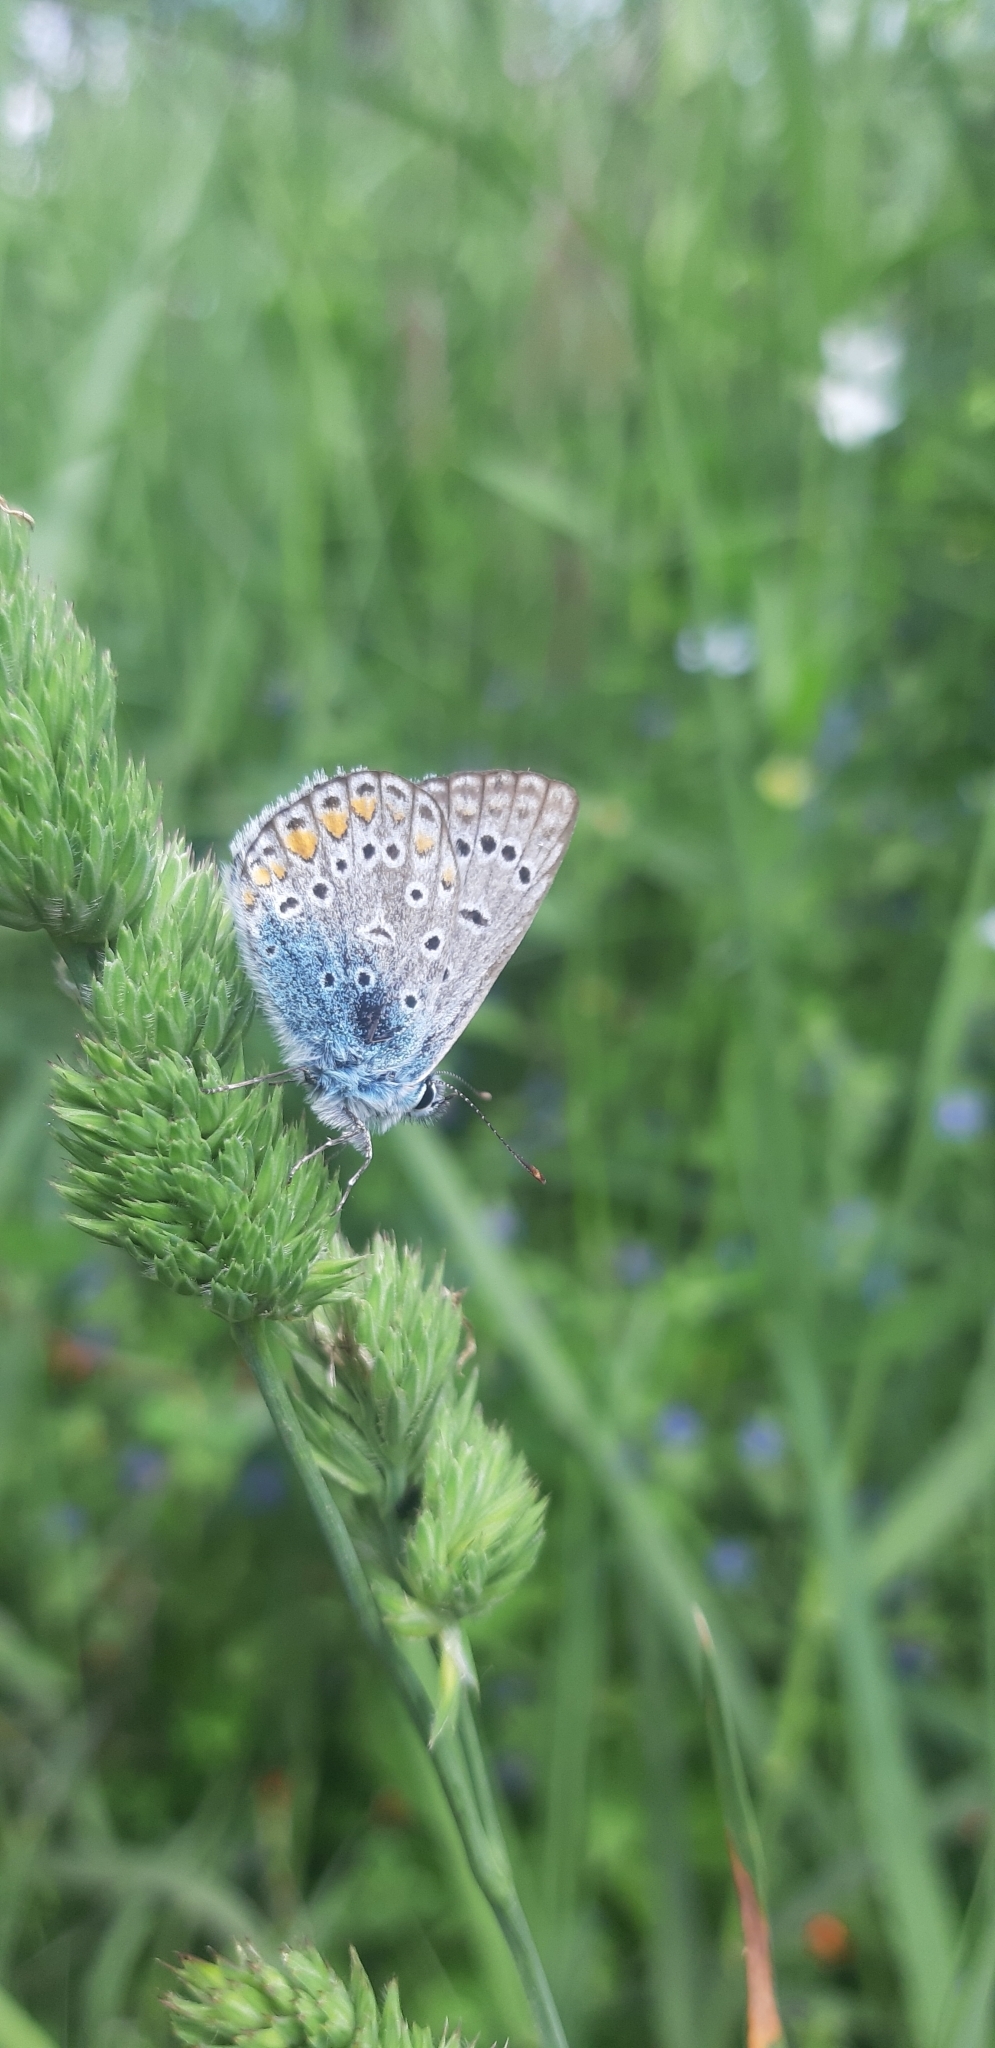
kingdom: Animalia
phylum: Arthropoda
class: Insecta
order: Lepidoptera
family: Lycaenidae
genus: Polyommatus
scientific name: Polyommatus icarus
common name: Common blue
